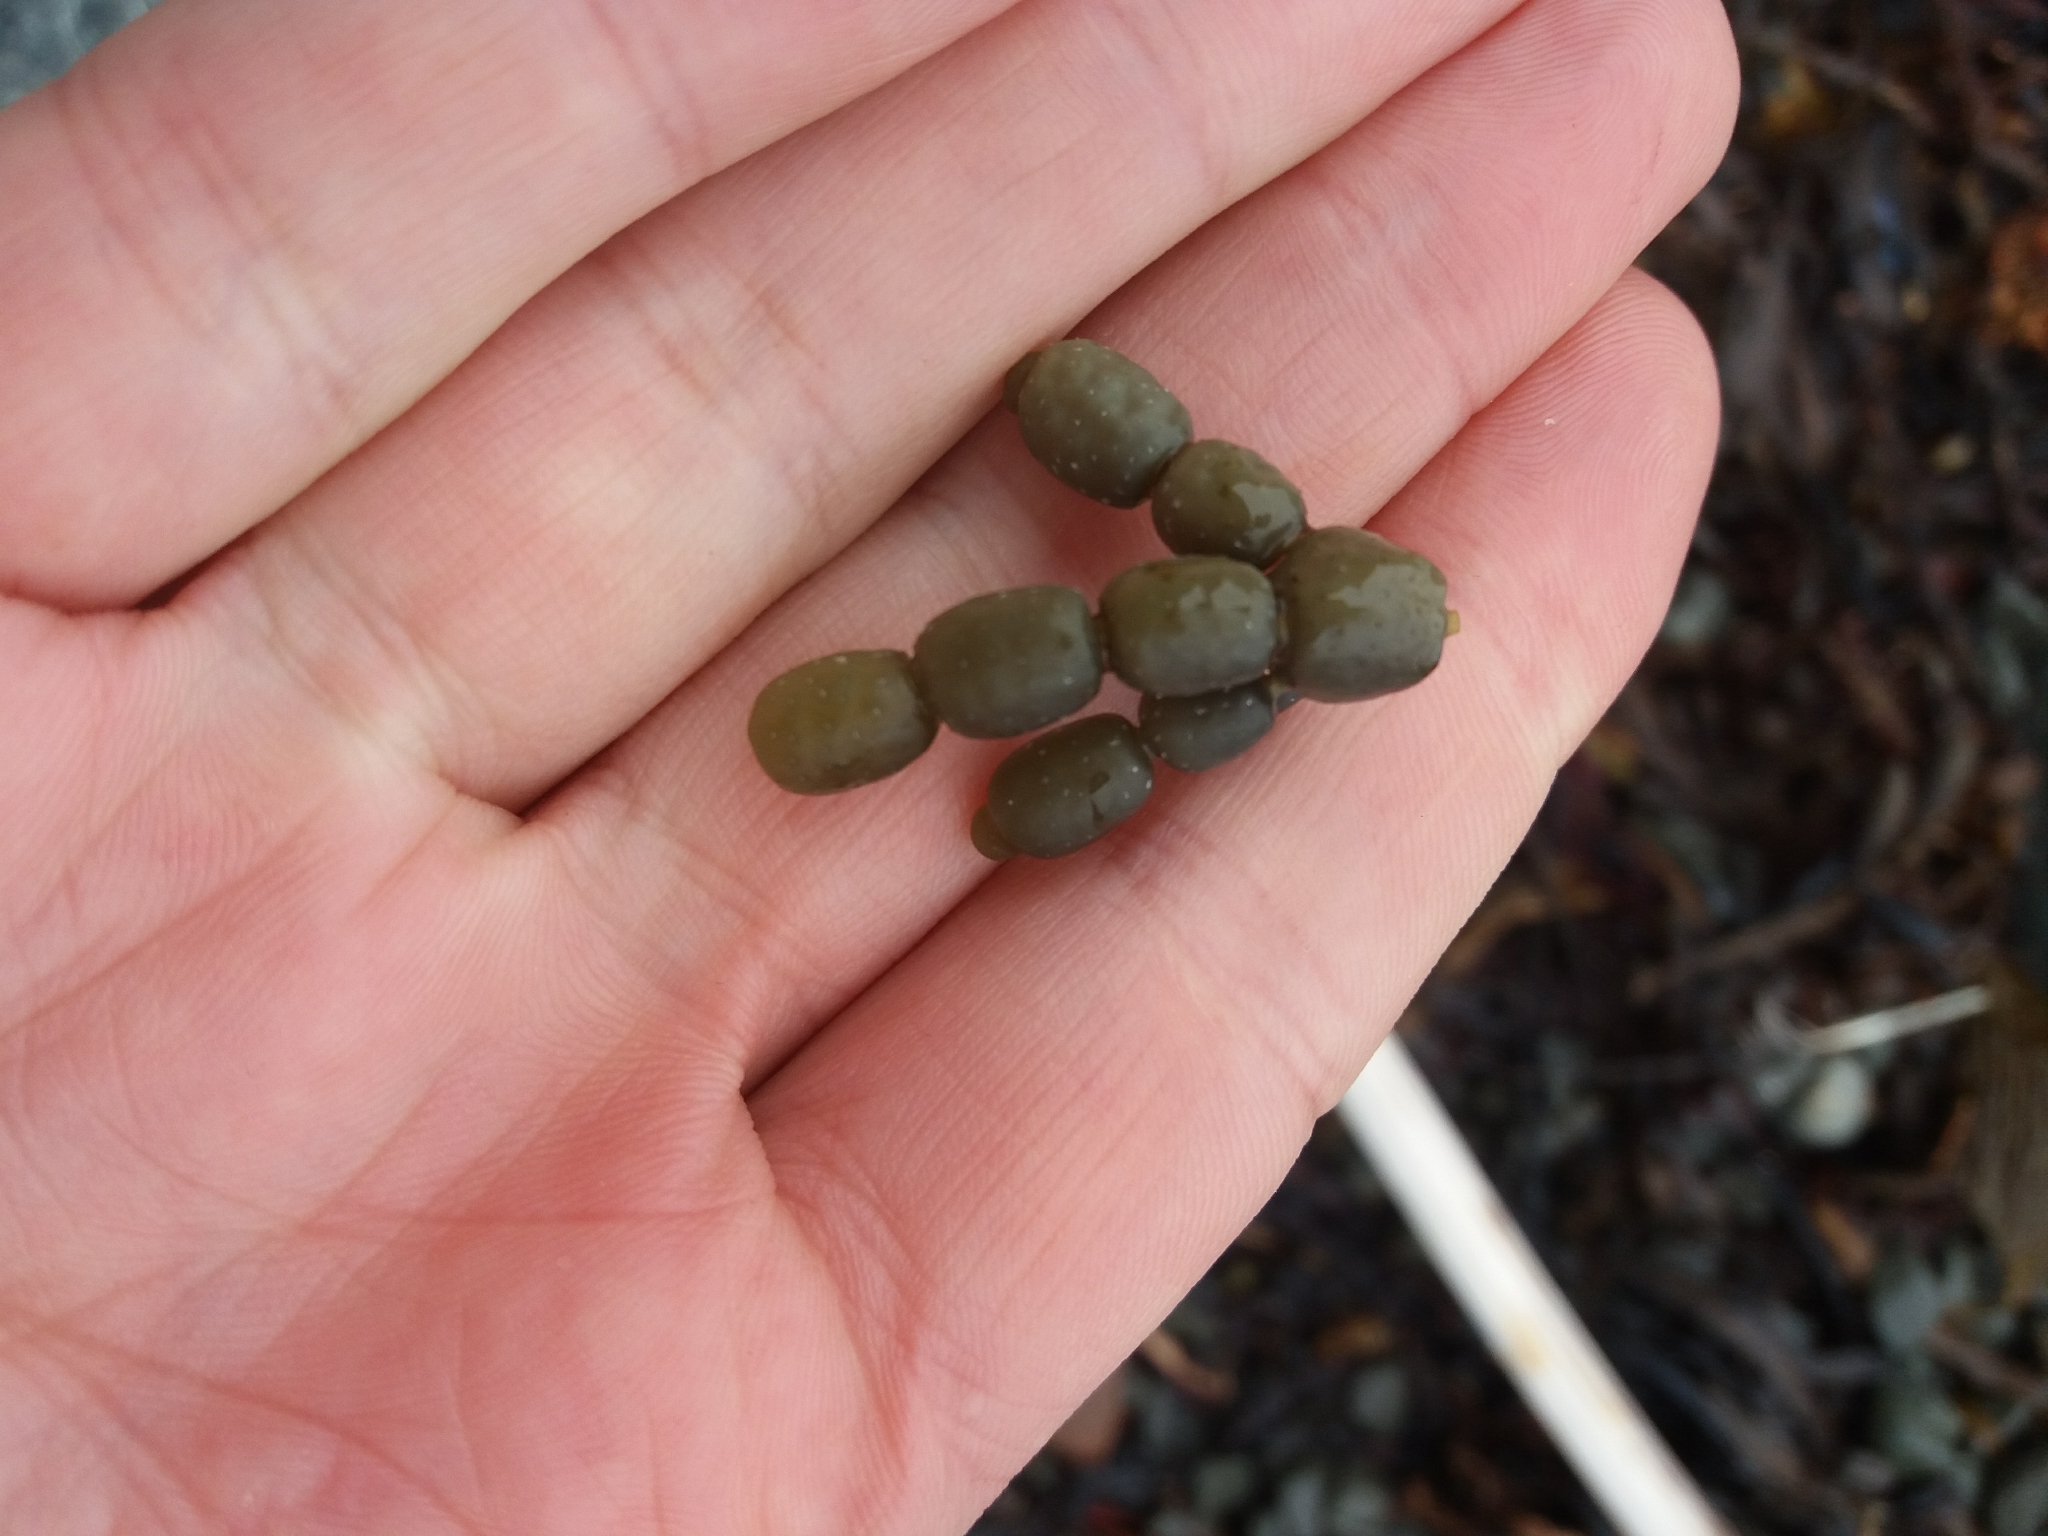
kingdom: Chromista
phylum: Ochrophyta
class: Phaeophyceae
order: Fucales
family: Hormosiraceae
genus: Hormosira
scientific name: Hormosira banksii
